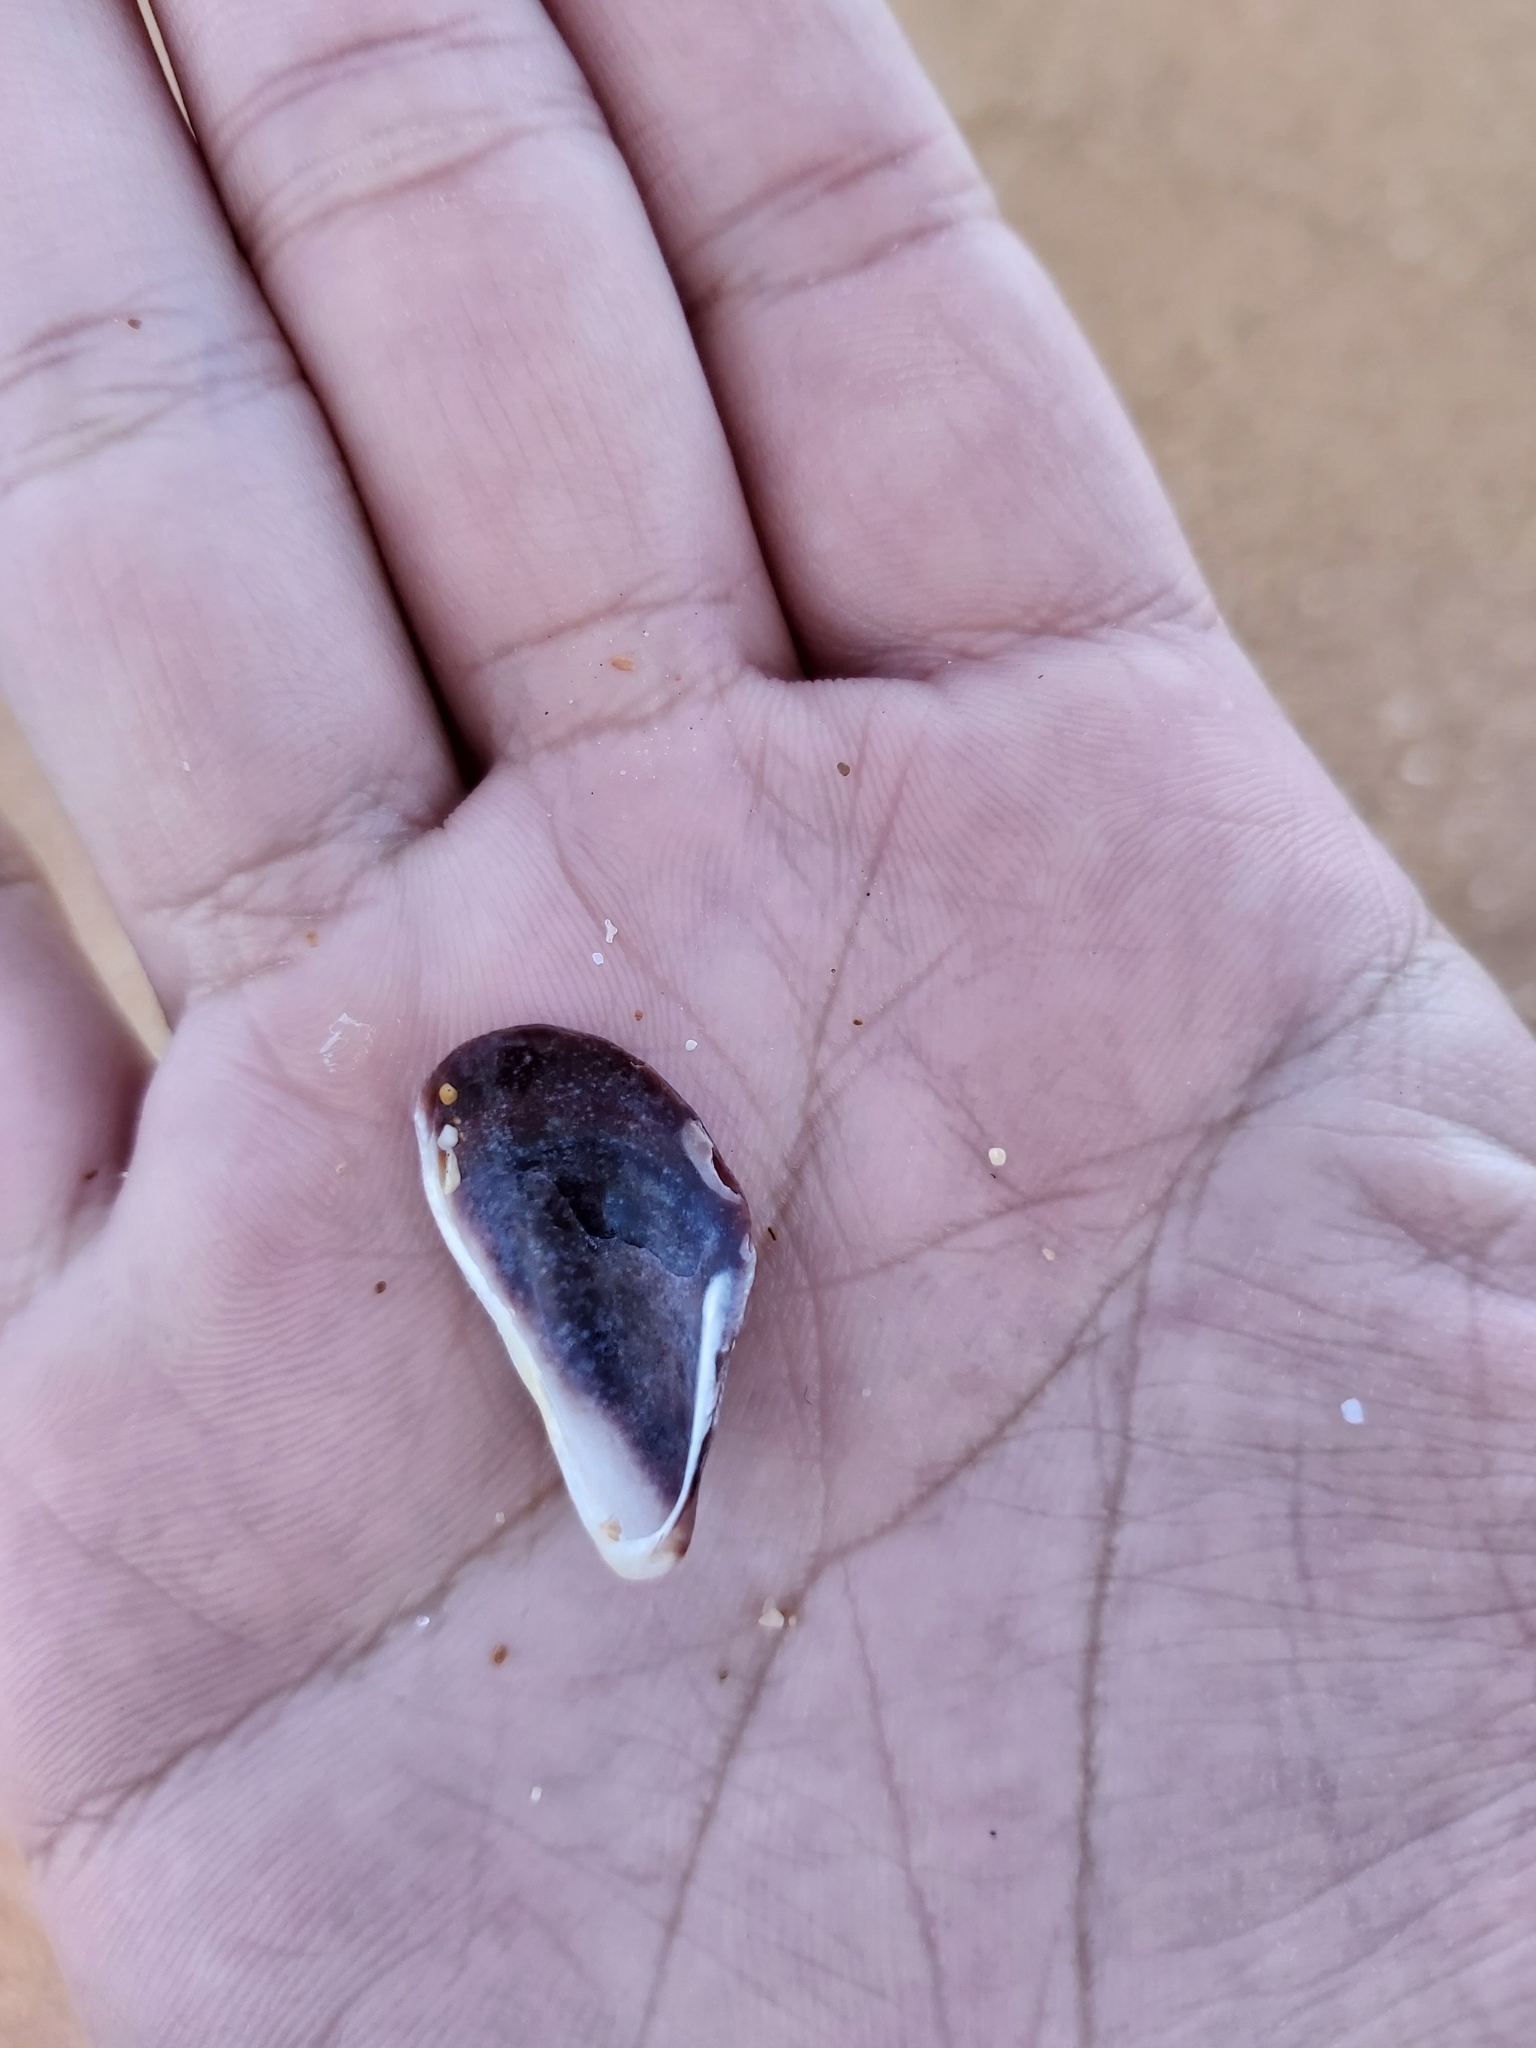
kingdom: Animalia
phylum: Mollusca
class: Bivalvia
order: Mytilida
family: Mytilidae
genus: Trichomya
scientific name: Trichomya hirsuta
